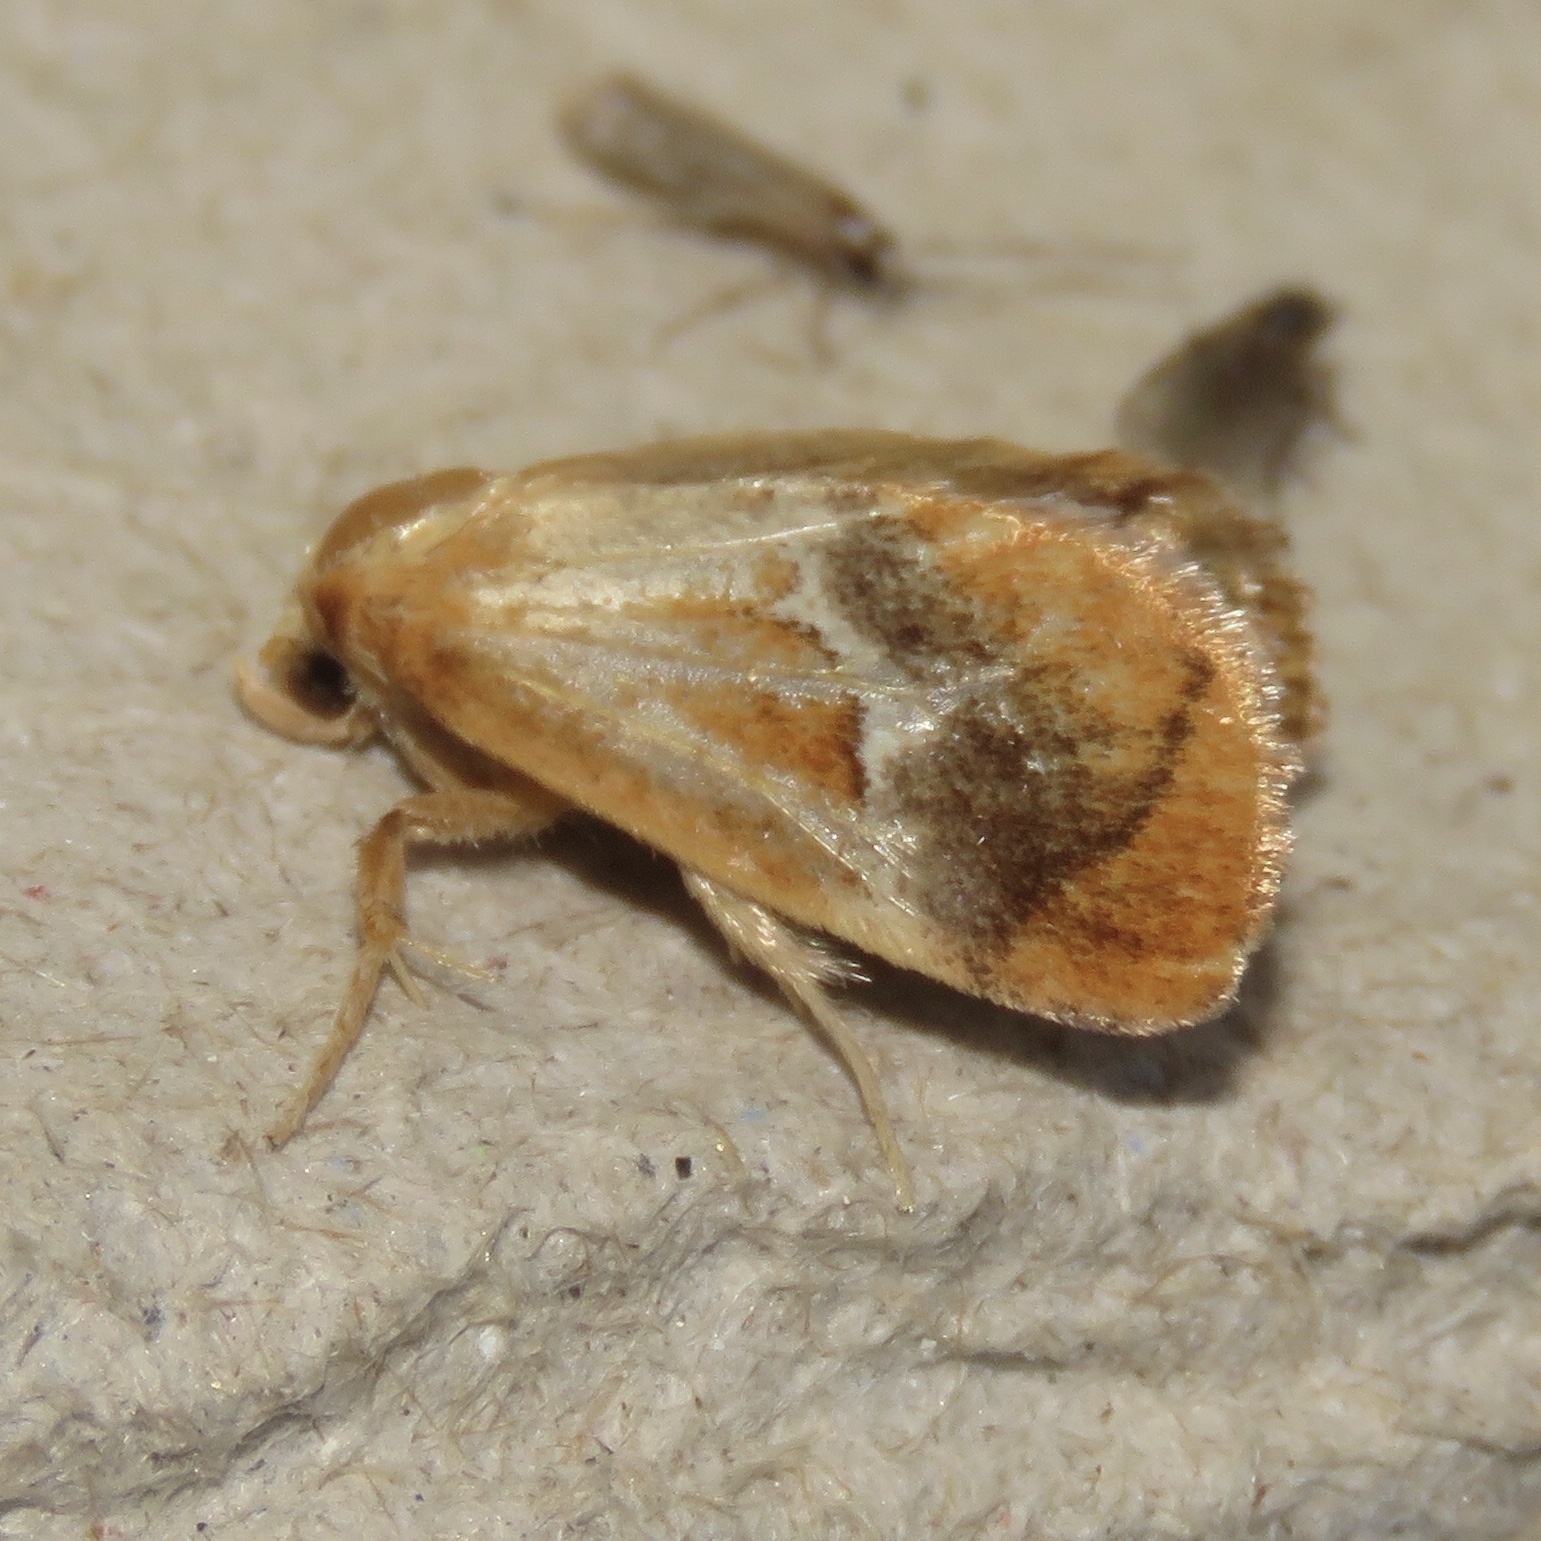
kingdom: Animalia
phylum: Arthropoda
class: Insecta
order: Lepidoptera
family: Limacodidae
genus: Lithacodes
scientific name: Lithacodes fasciola
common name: Yellow-shouldered slug moth
